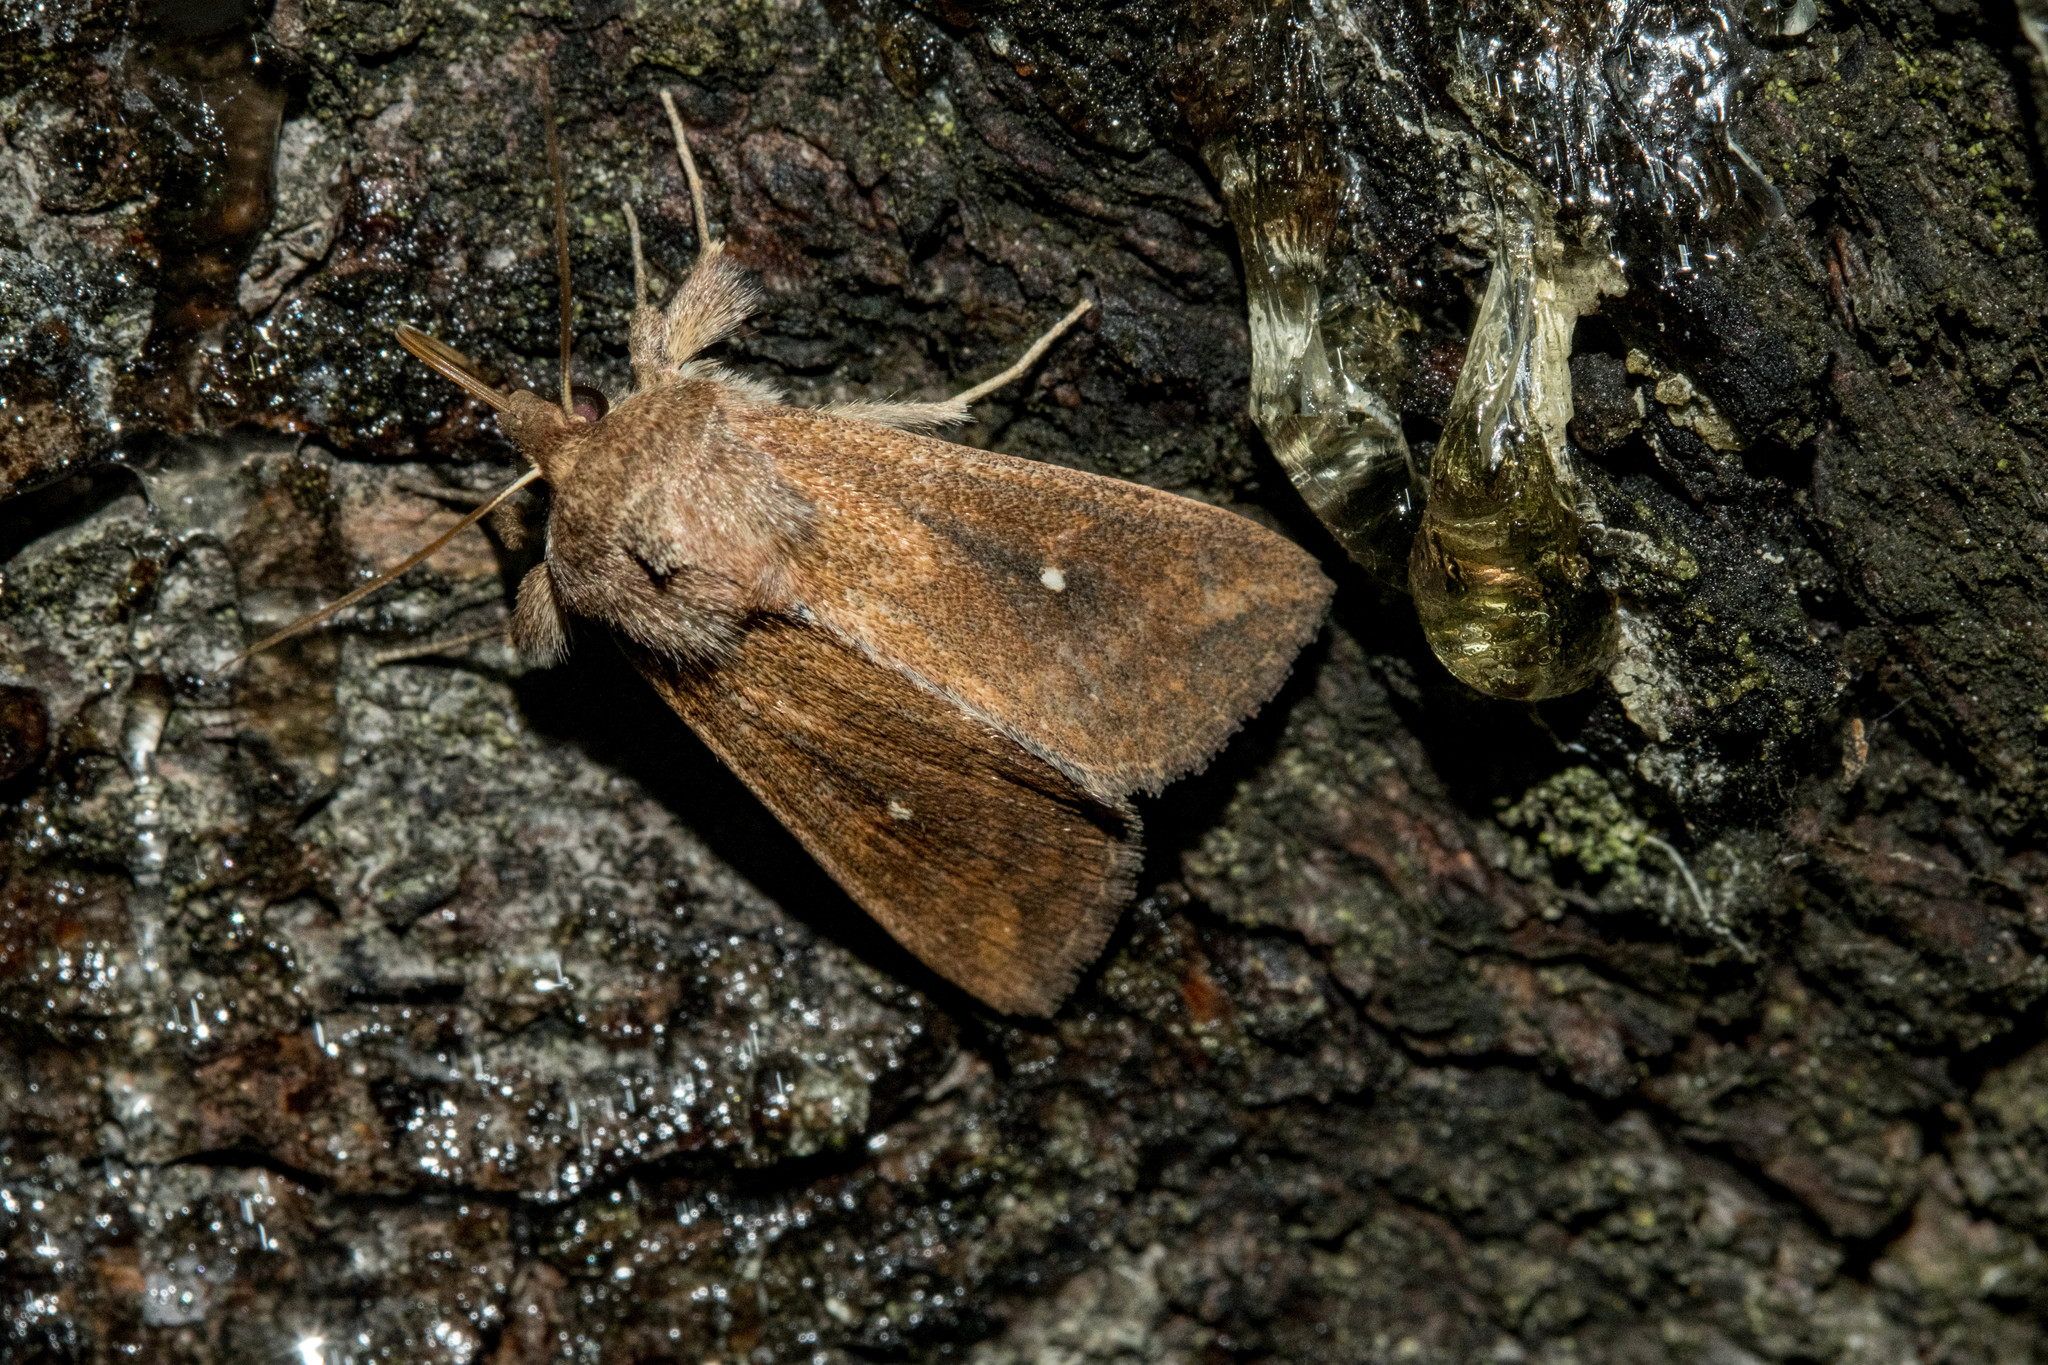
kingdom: Animalia
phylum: Arthropoda
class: Insecta
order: Lepidoptera
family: Noctuidae
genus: Mythimna
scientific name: Mythimna albipuncta
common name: White-point
